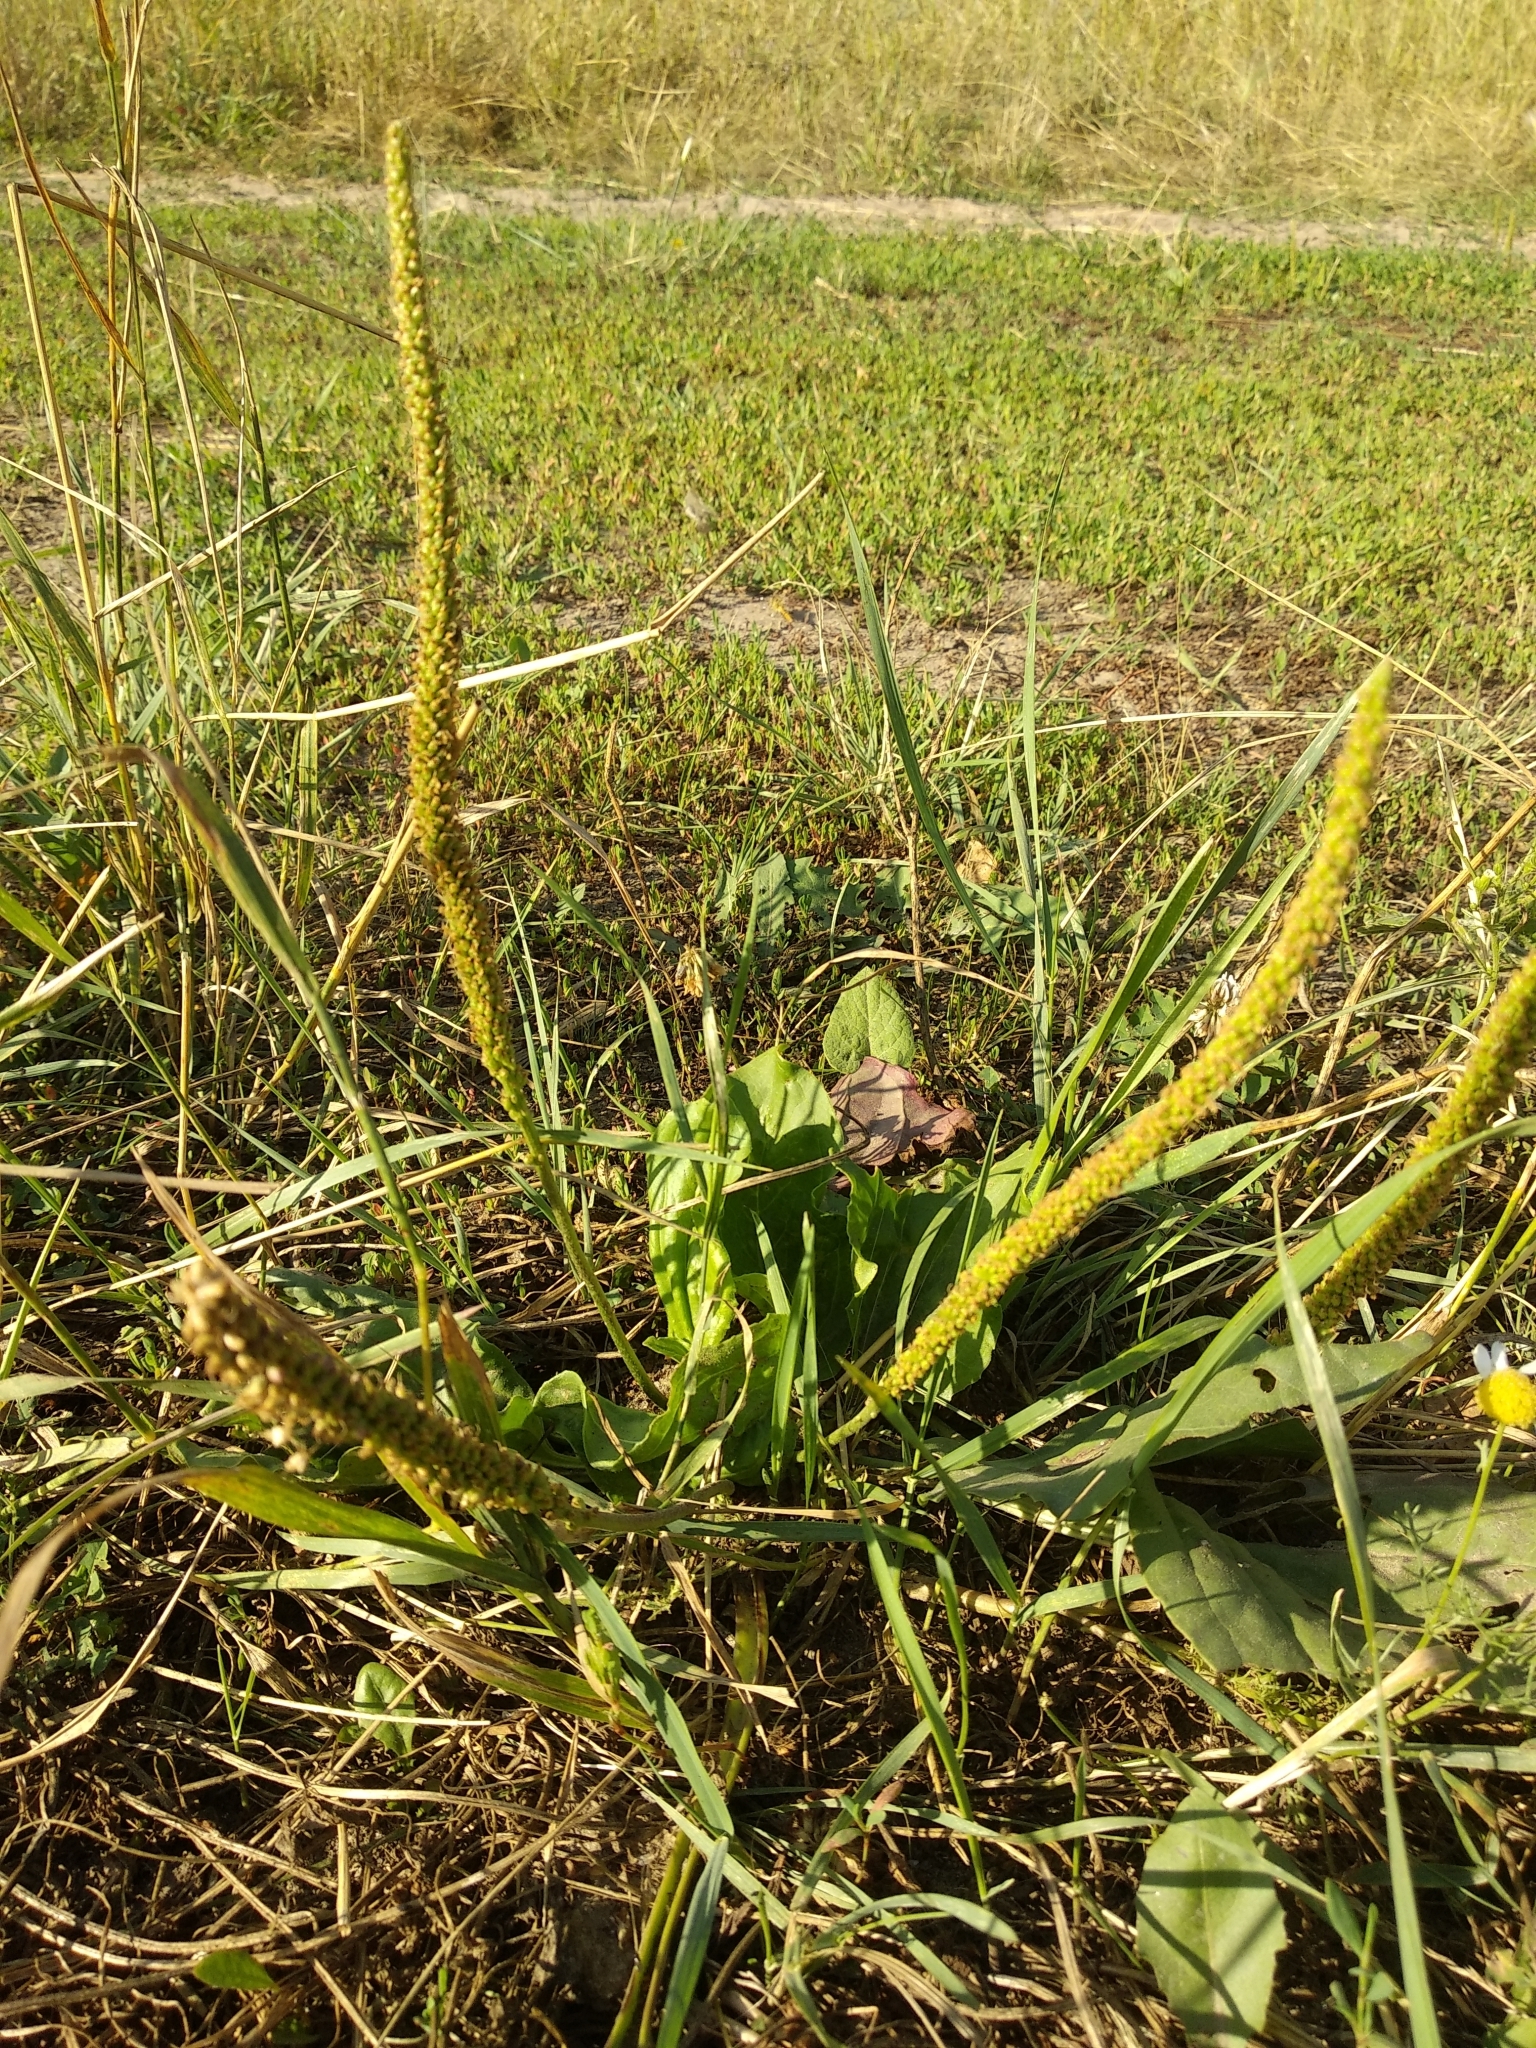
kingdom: Plantae
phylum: Tracheophyta
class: Magnoliopsida
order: Lamiales
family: Plantaginaceae
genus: Plantago
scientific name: Plantago major
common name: Common plantain
